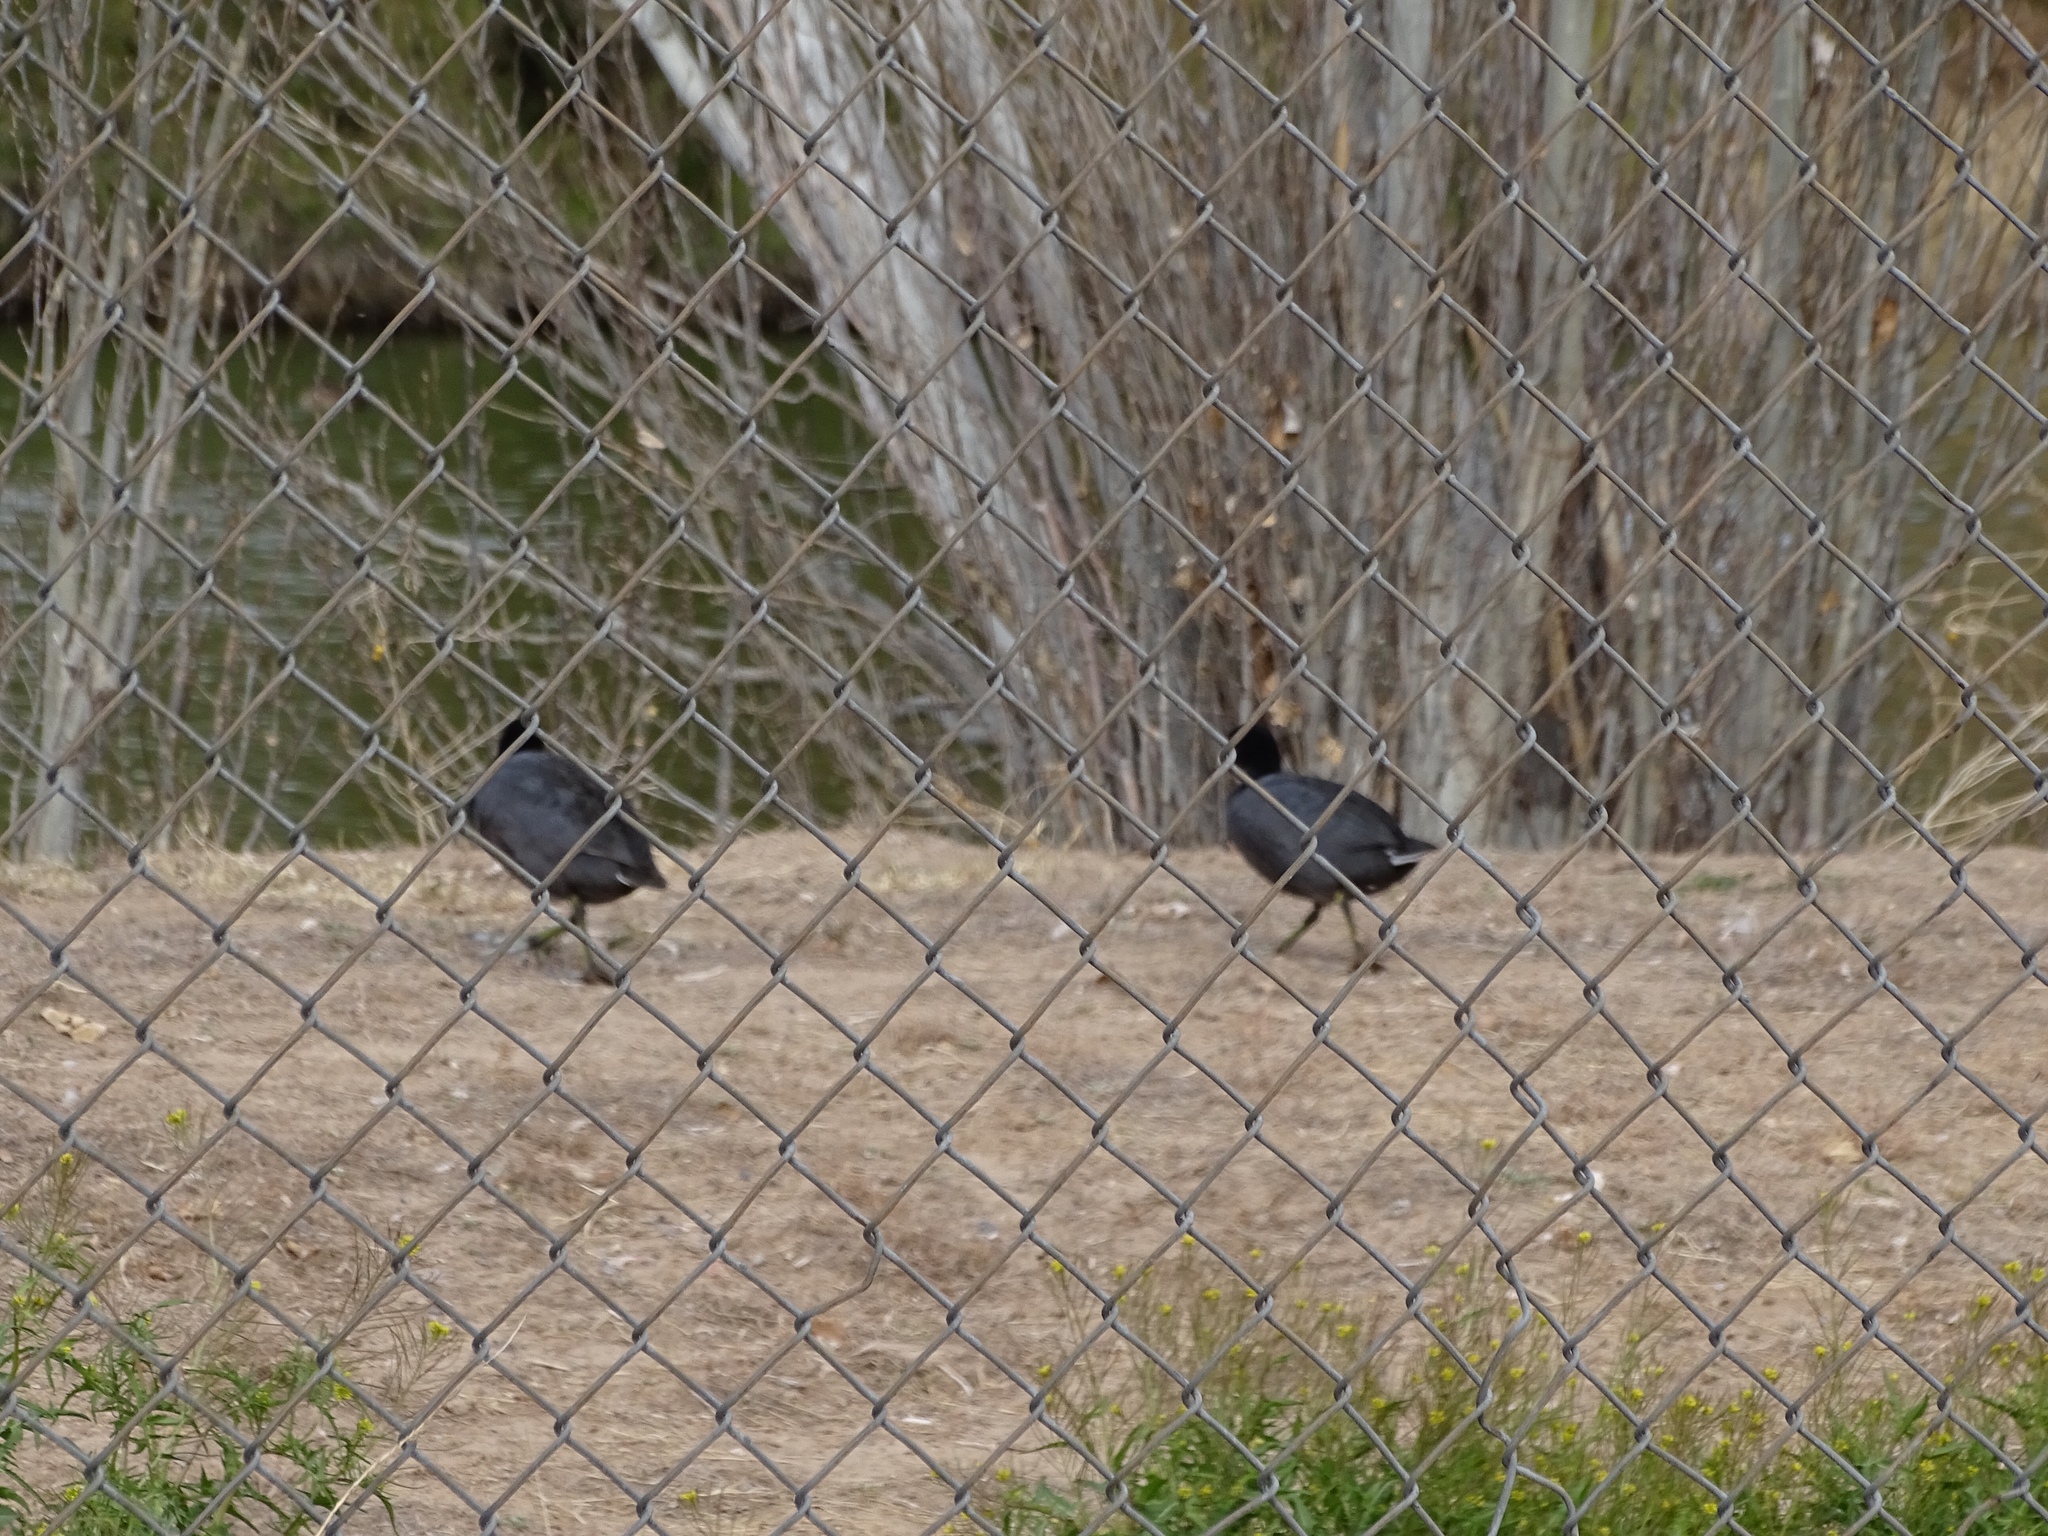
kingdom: Animalia
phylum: Chordata
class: Aves
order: Gruiformes
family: Rallidae
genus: Fulica
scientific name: Fulica americana
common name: American coot
